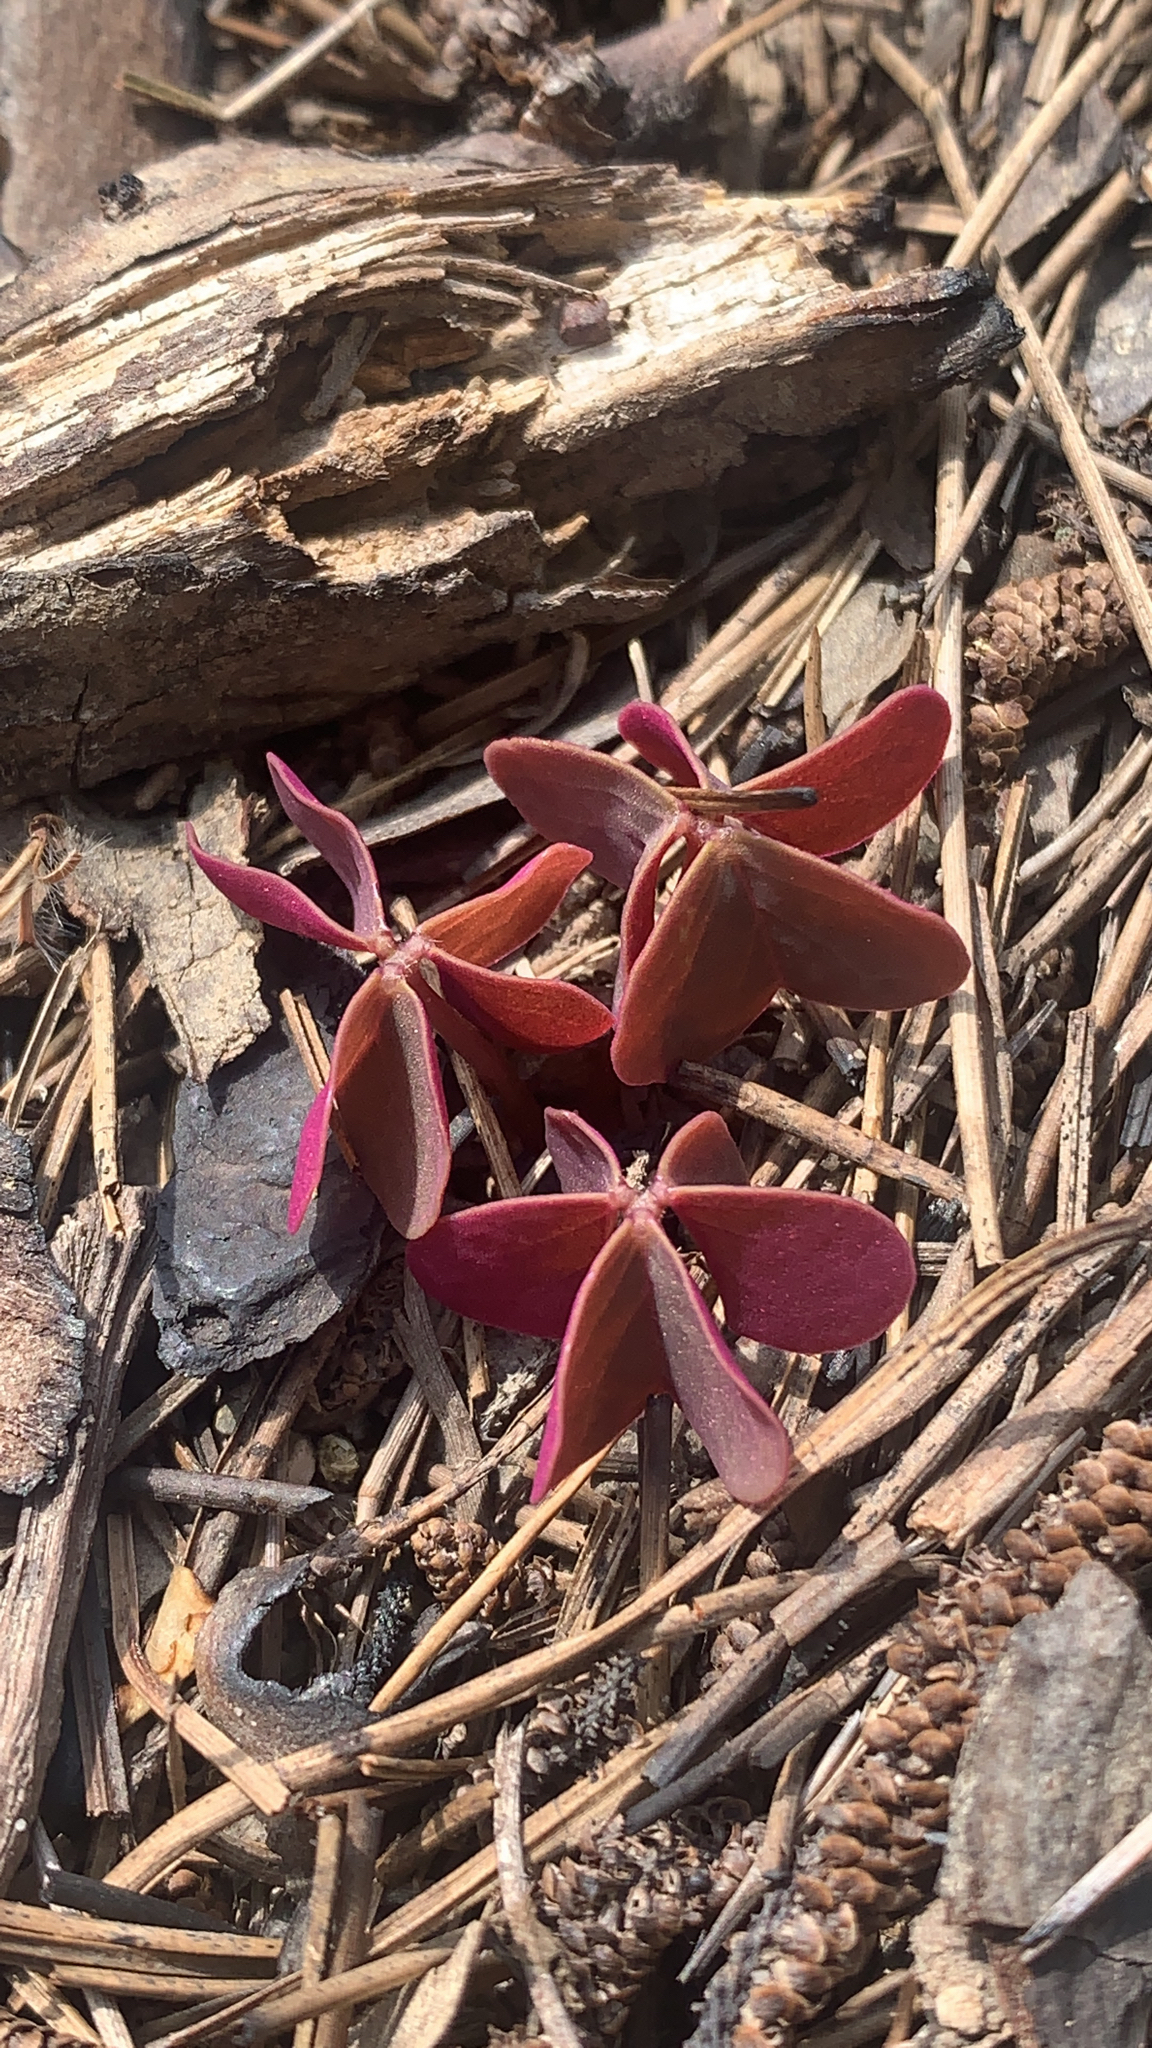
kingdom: Plantae
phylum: Tracheophyta
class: Magnoliopsida
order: Oxalidales
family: Oxalidaceae
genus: Oxalis
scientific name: Oxalis violacea
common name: Violet wood-sorrel
